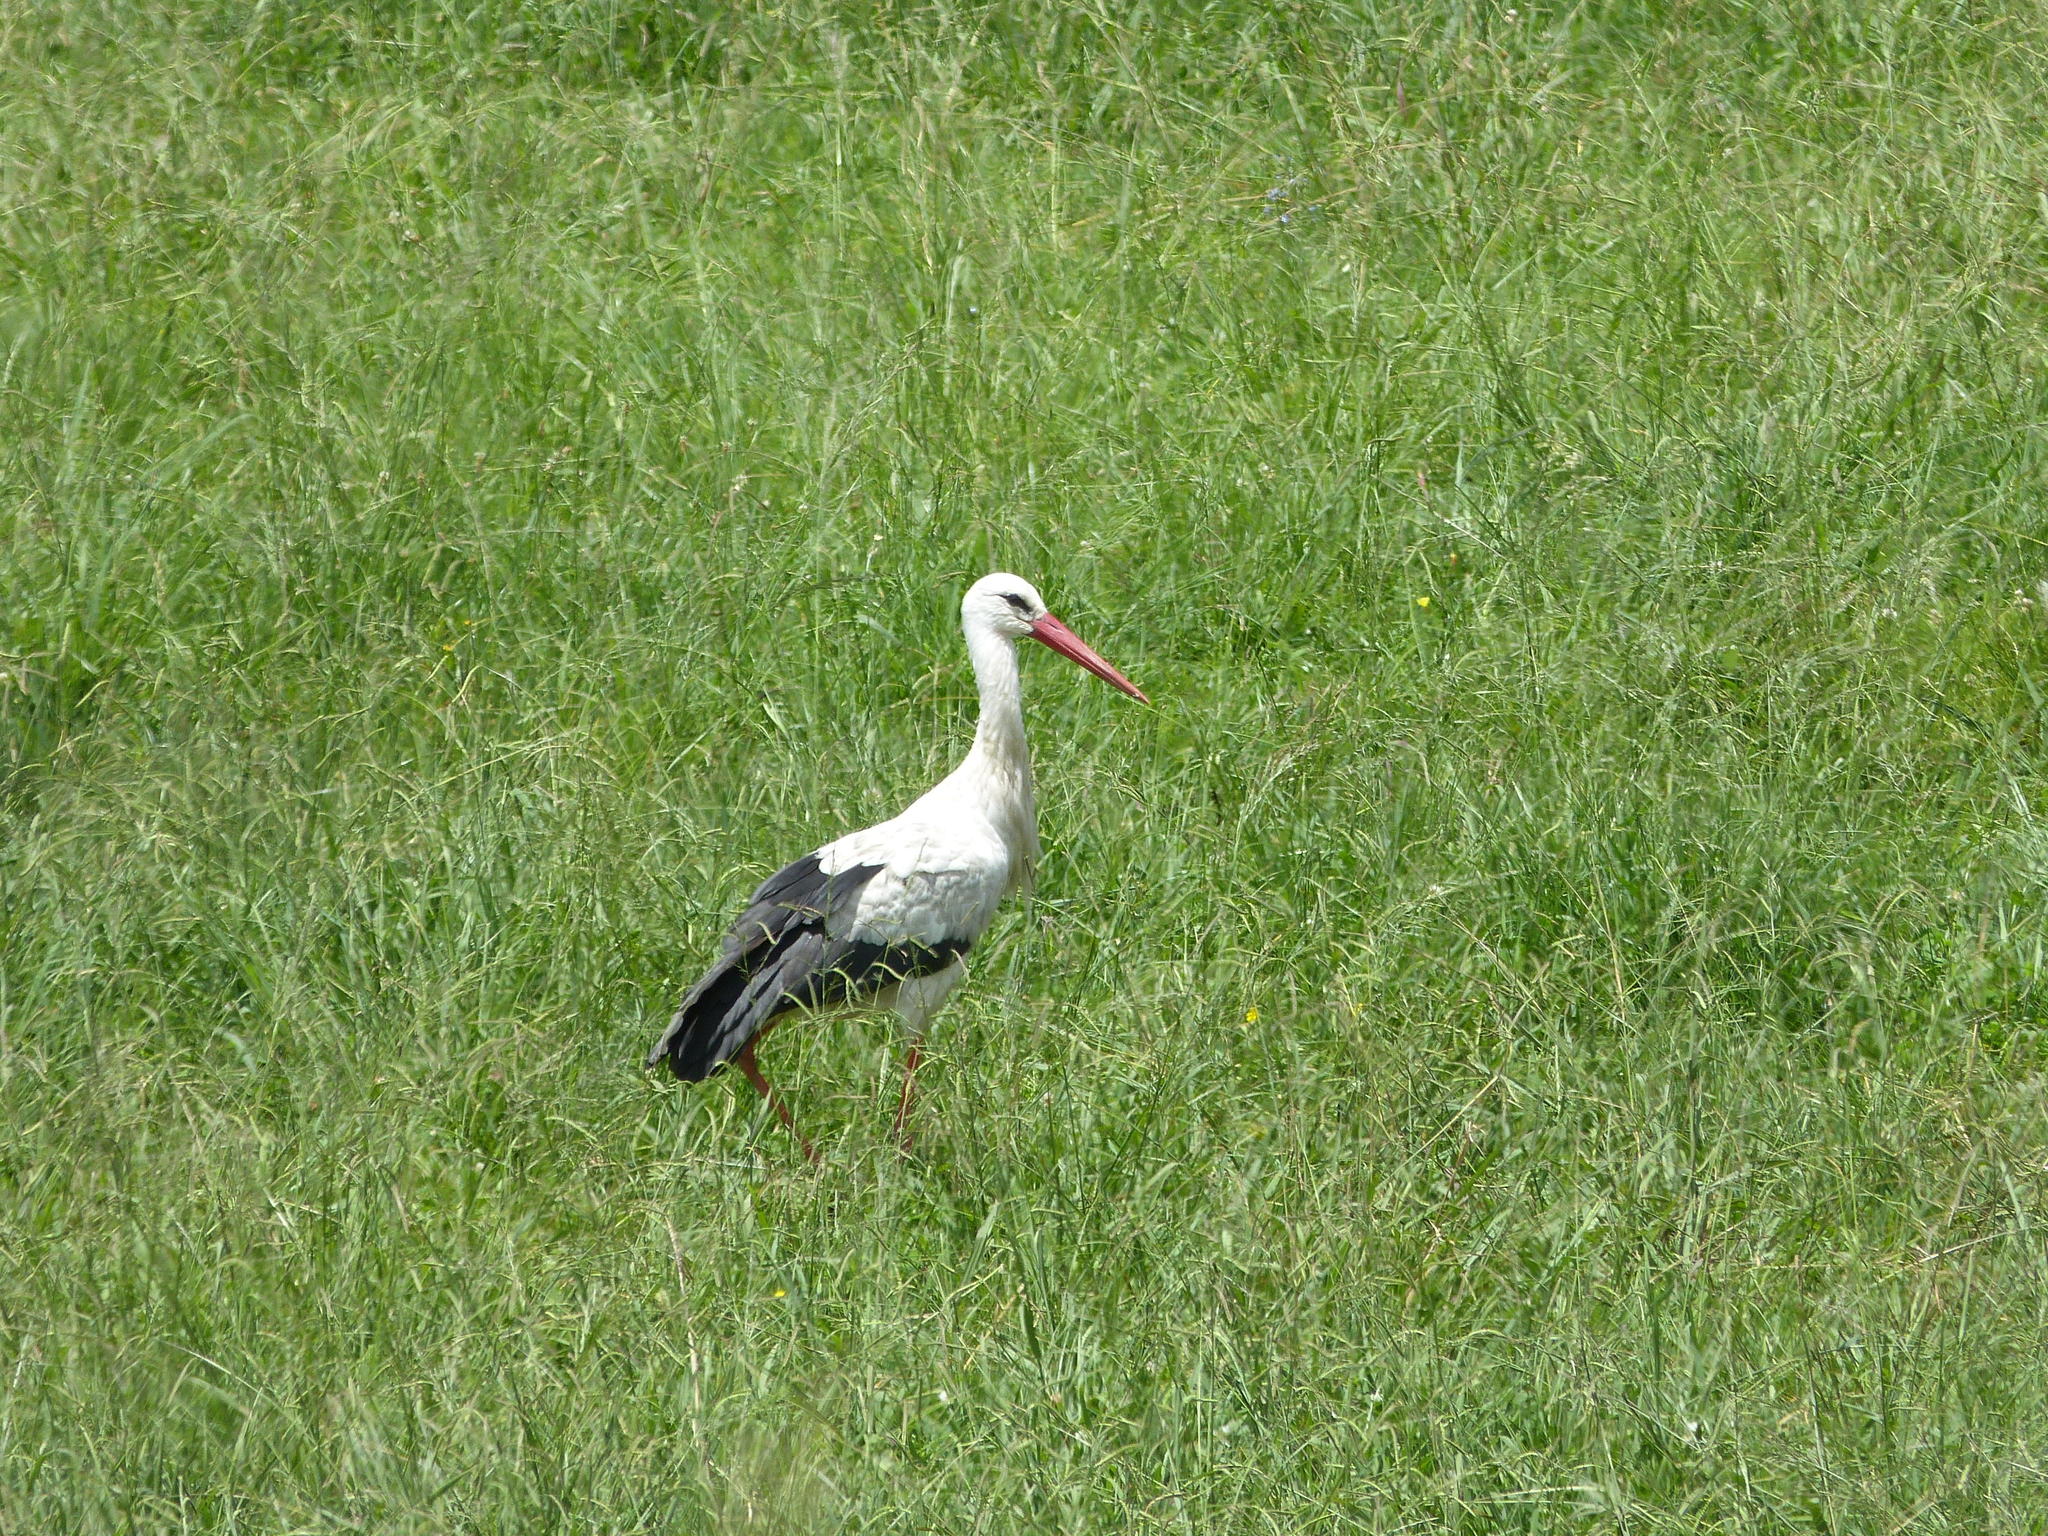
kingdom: Animalia
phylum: Chordata
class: Aves
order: Ciconiiformes
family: Ciconiidae
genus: Ciconia
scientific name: Ciconia ciconia
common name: White stork
